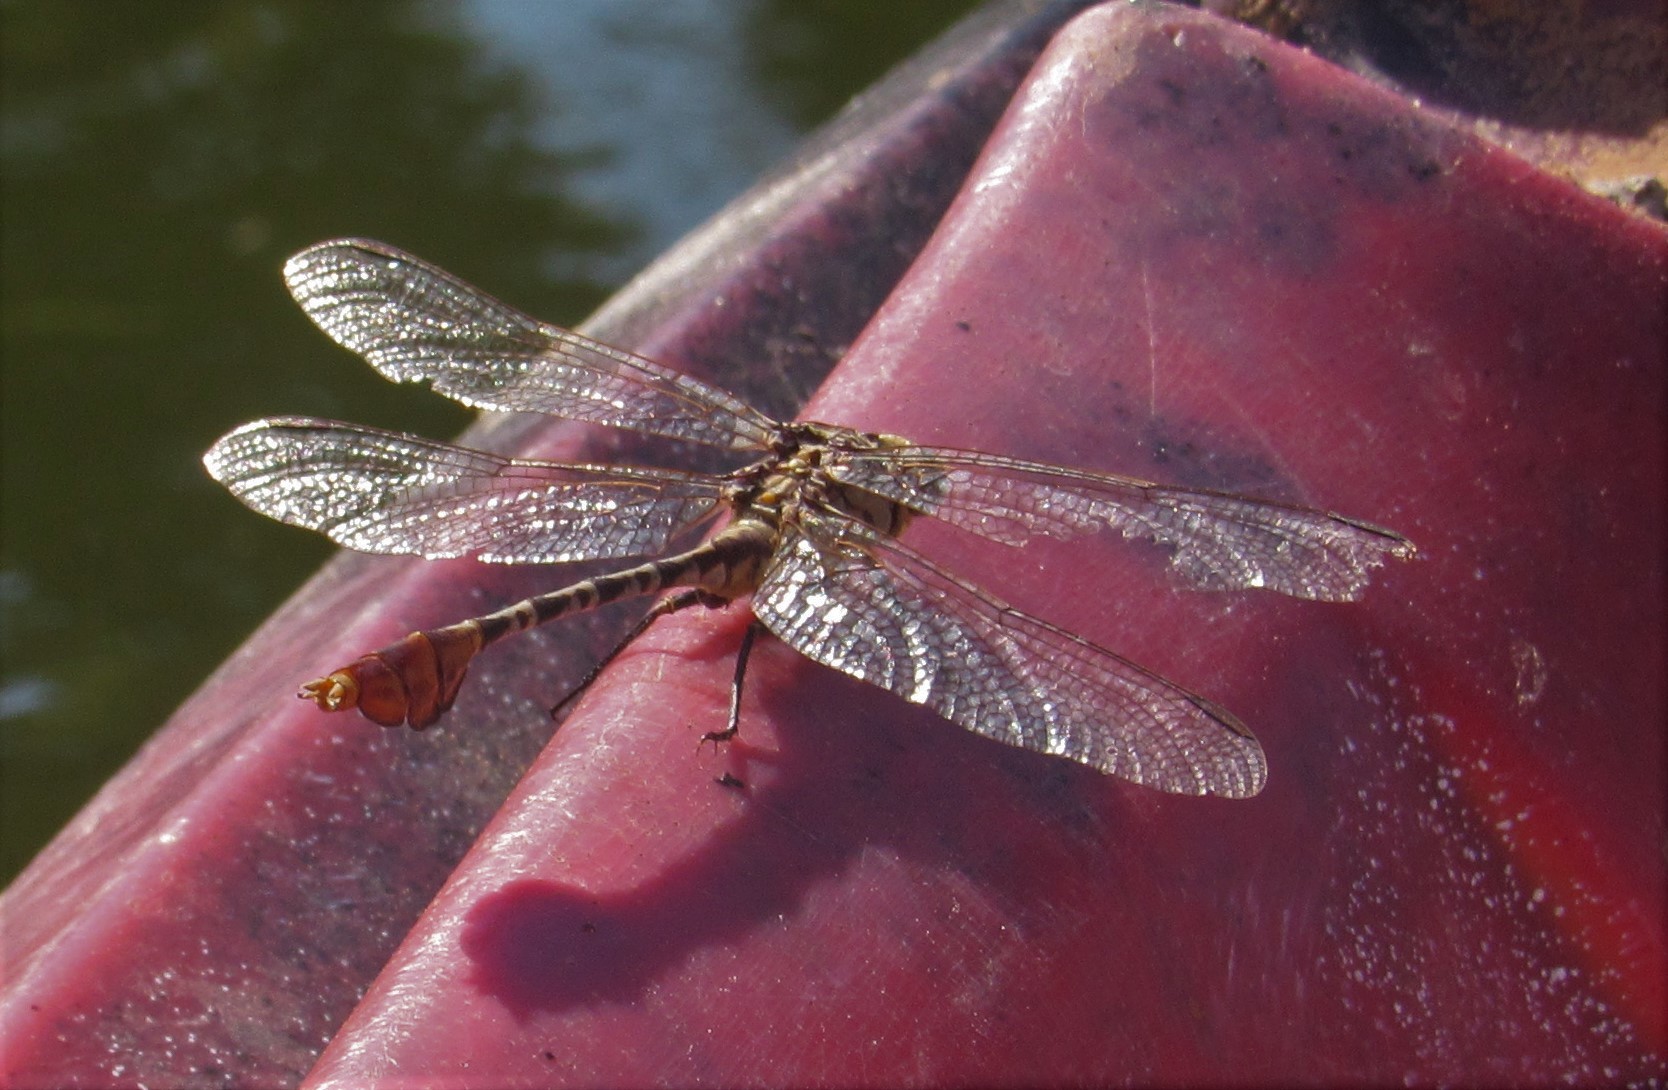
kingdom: Animalia
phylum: Arthropoda
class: Insecta
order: Odonata
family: Gomphidae
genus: Dromogomphus
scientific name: Dromogomphus spoliatus
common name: Flag-tailed spinyleg
